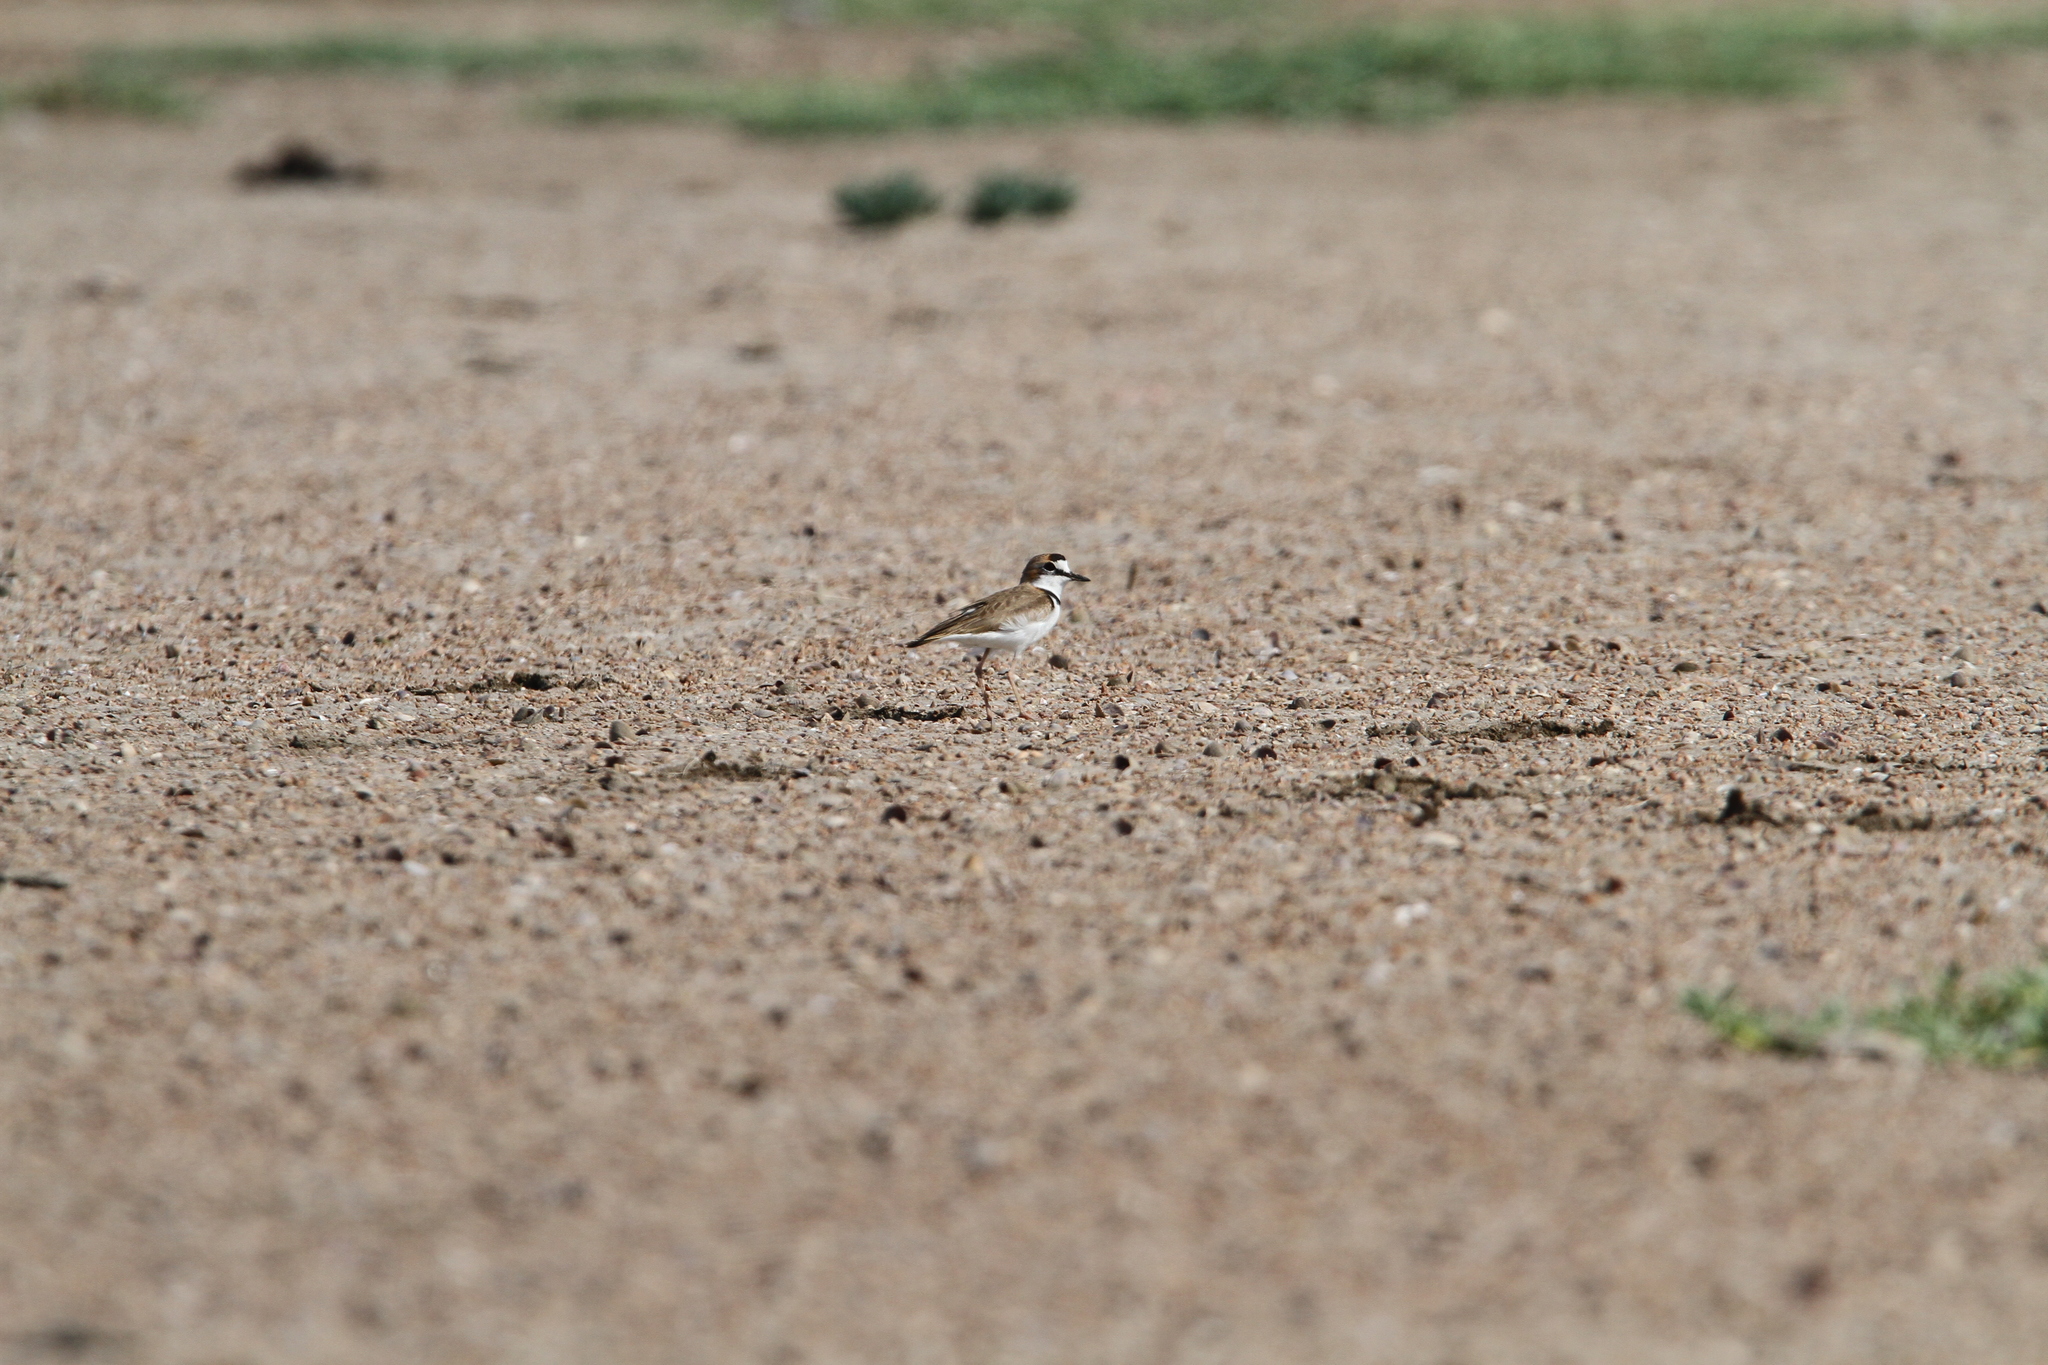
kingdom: Animalia
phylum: Chordata
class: Aves
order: Charadriiformes
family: Charadriidae
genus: Anarhynchus
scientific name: Anarhynchus
